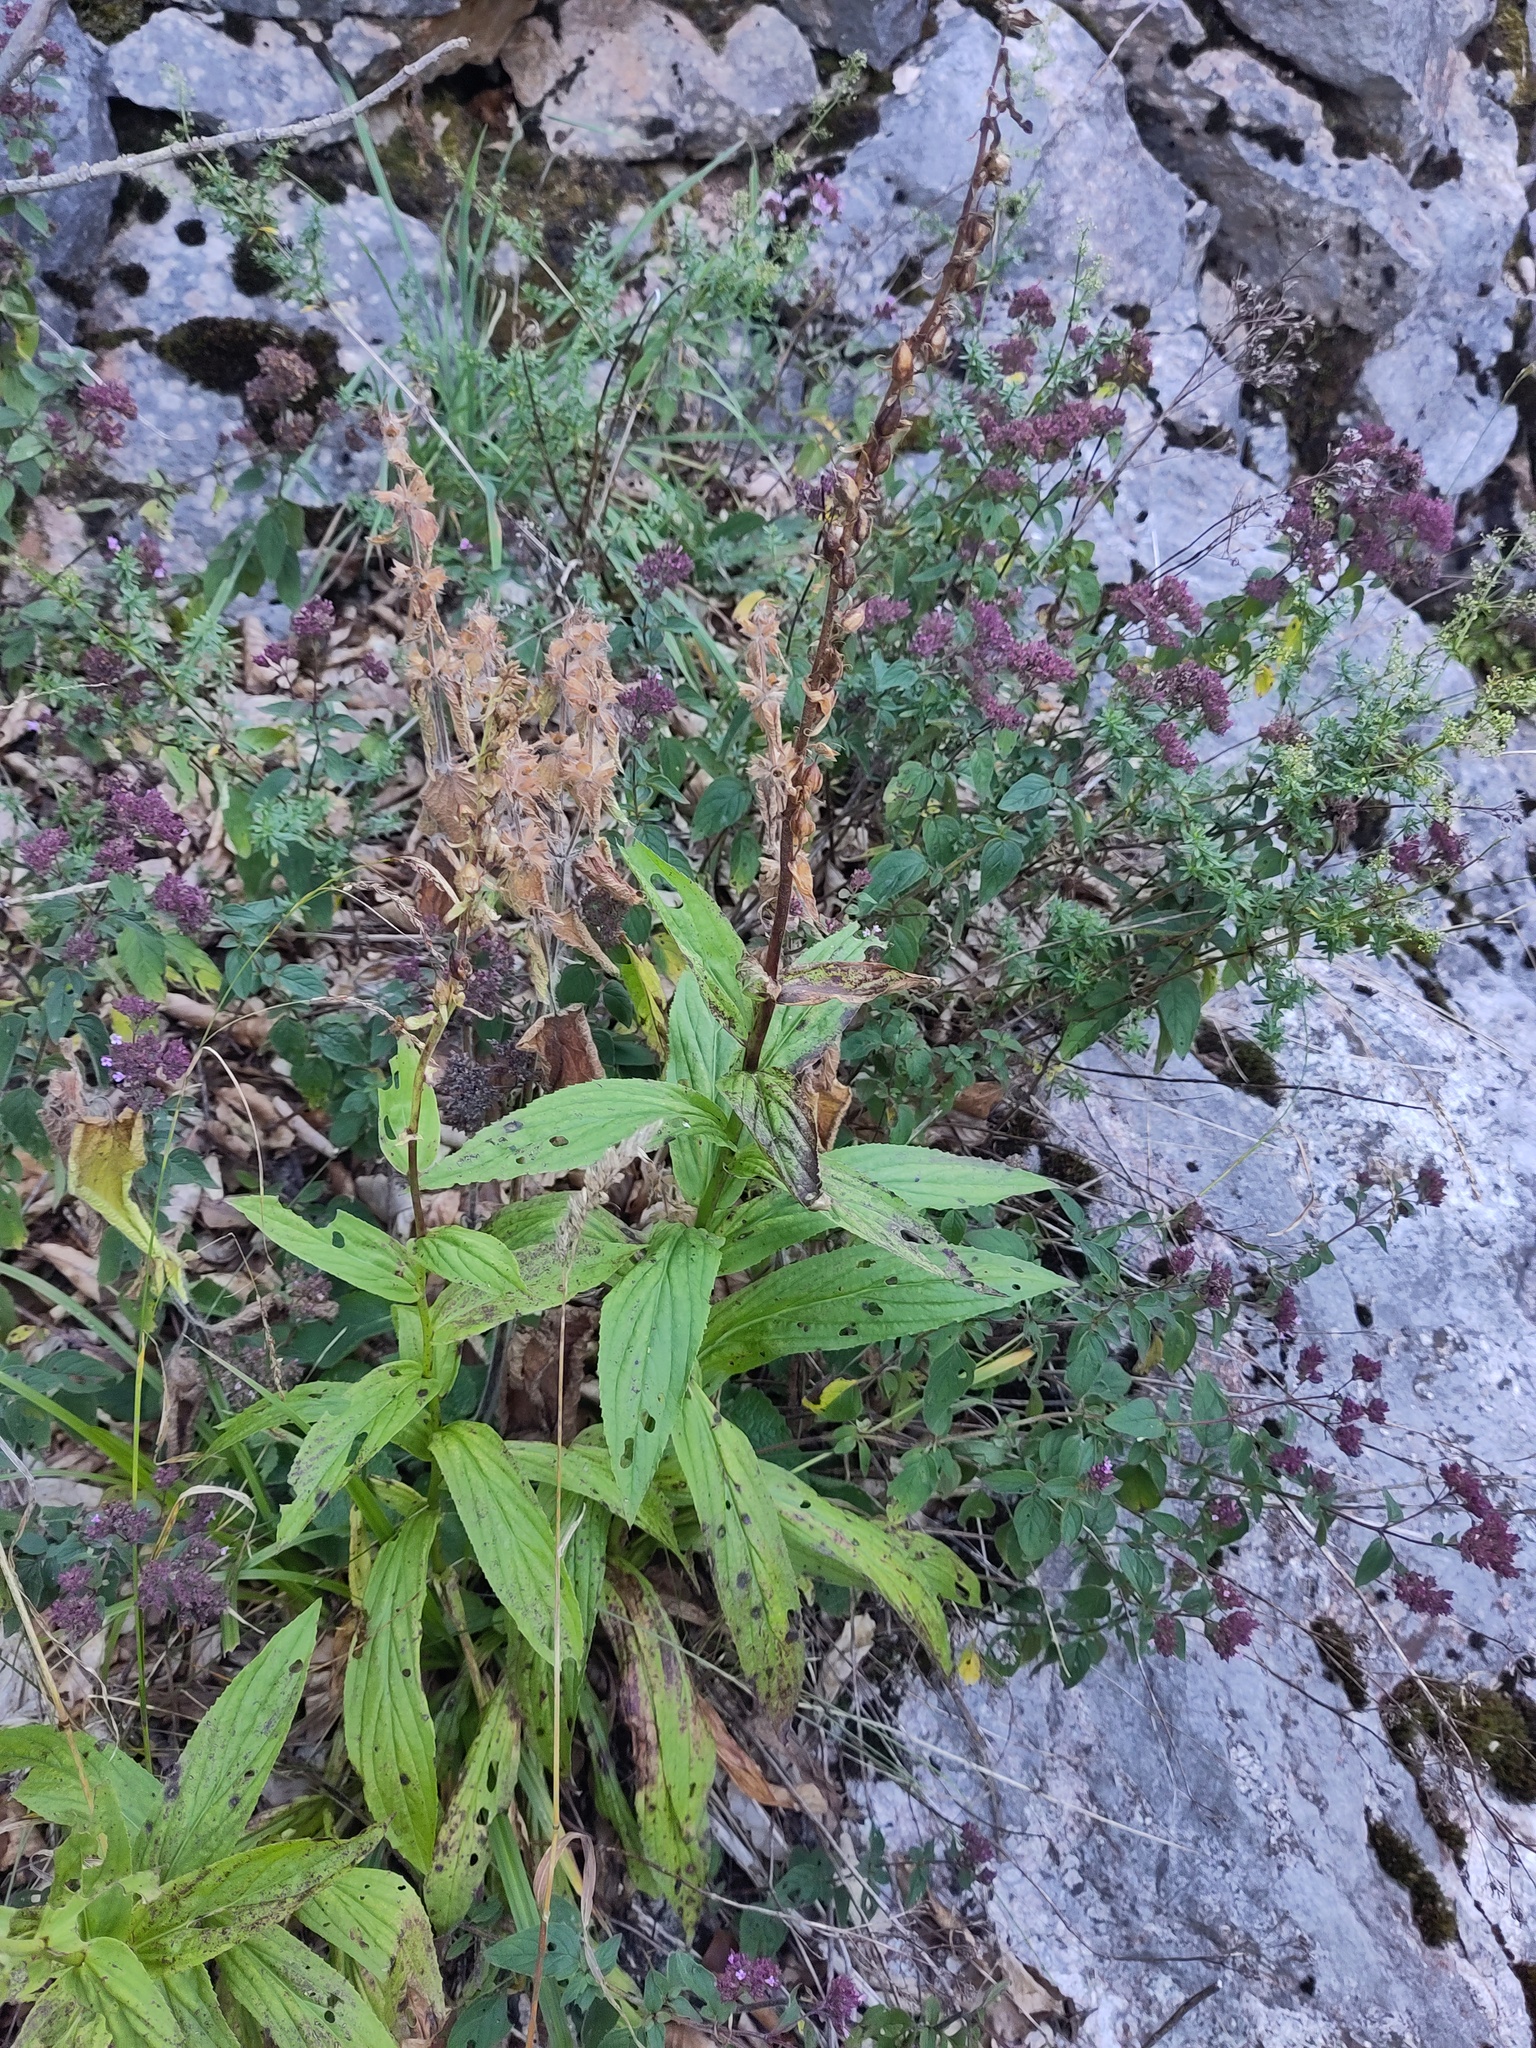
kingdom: Plantae
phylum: Tracheophyta
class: Magnoliopsida
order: Lamiales
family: Plantaginaceae
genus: Digitalis
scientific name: Digitalis grandiflora
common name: Yellow foxglove
